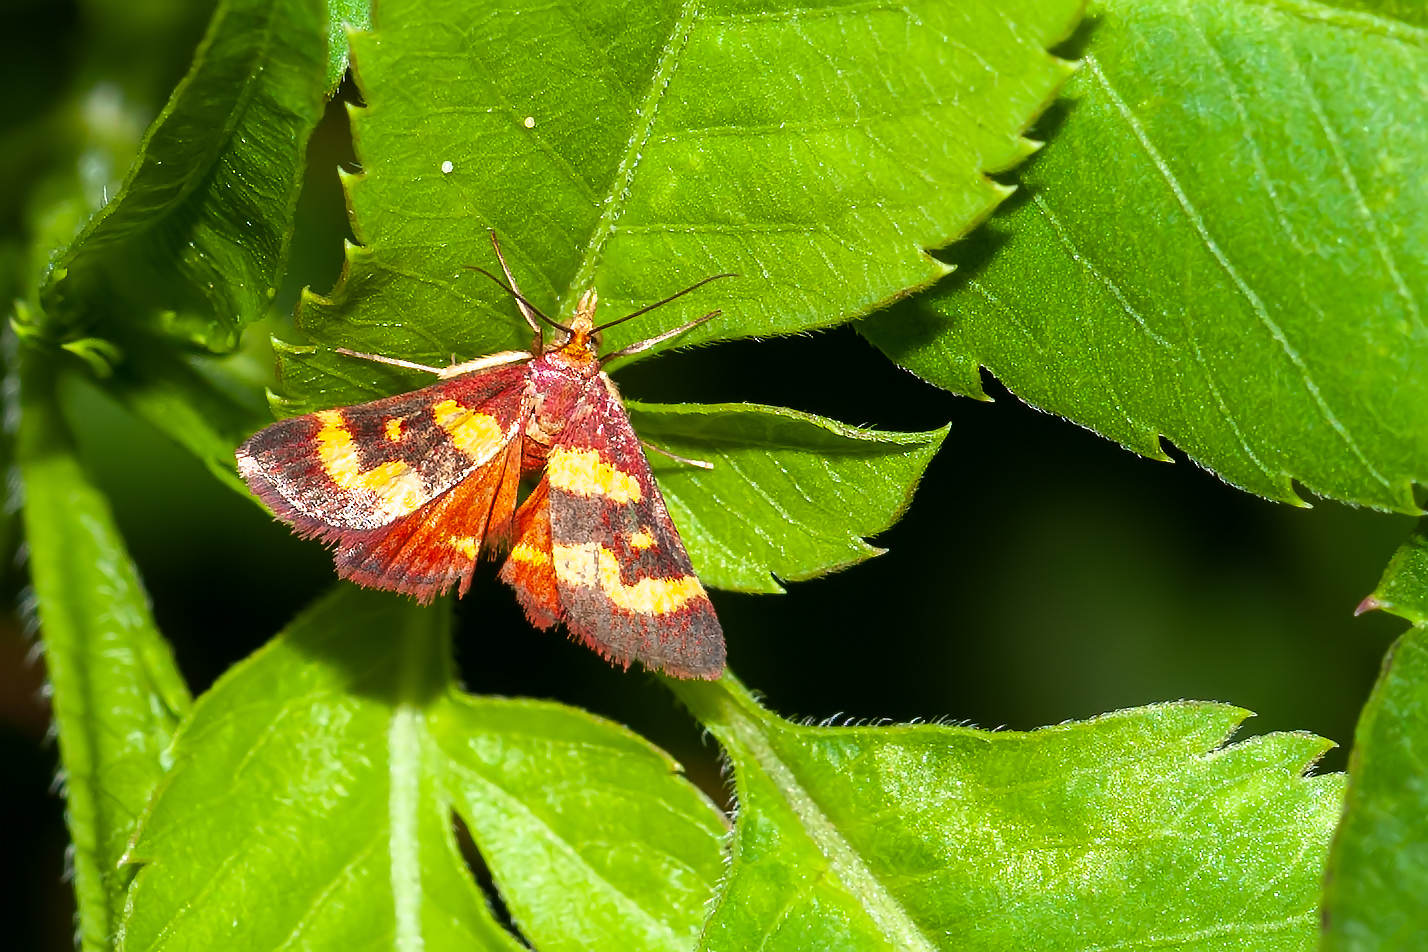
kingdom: Animalia
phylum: Arthropoda
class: Insecta
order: Lepidoptera
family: Crambidae
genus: Pyrausta
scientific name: Pyrausta tyralis
